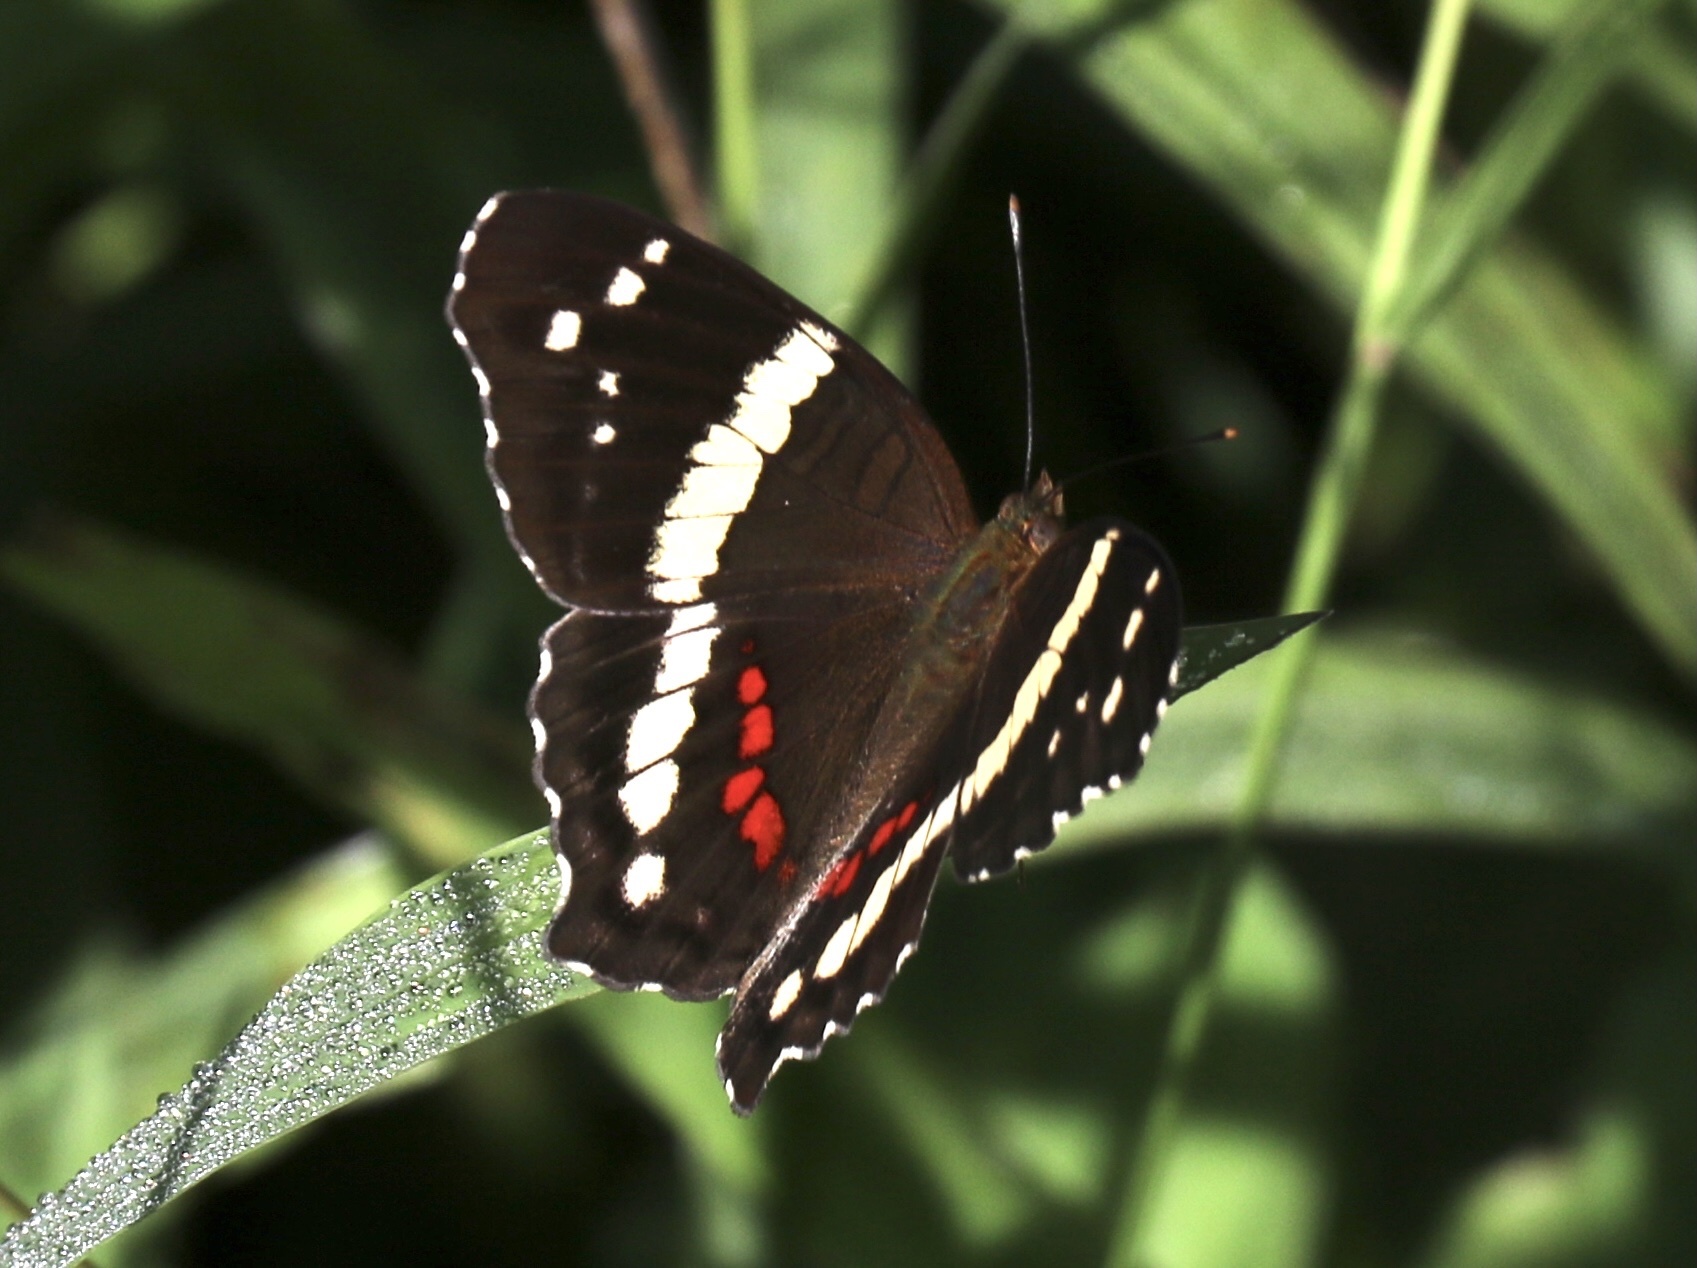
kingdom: Animalia
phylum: Arthropoda
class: Insecta
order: Lepidoptera
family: Nymphalidae
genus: Anartia
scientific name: Anartia fatima
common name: Banded peacock
